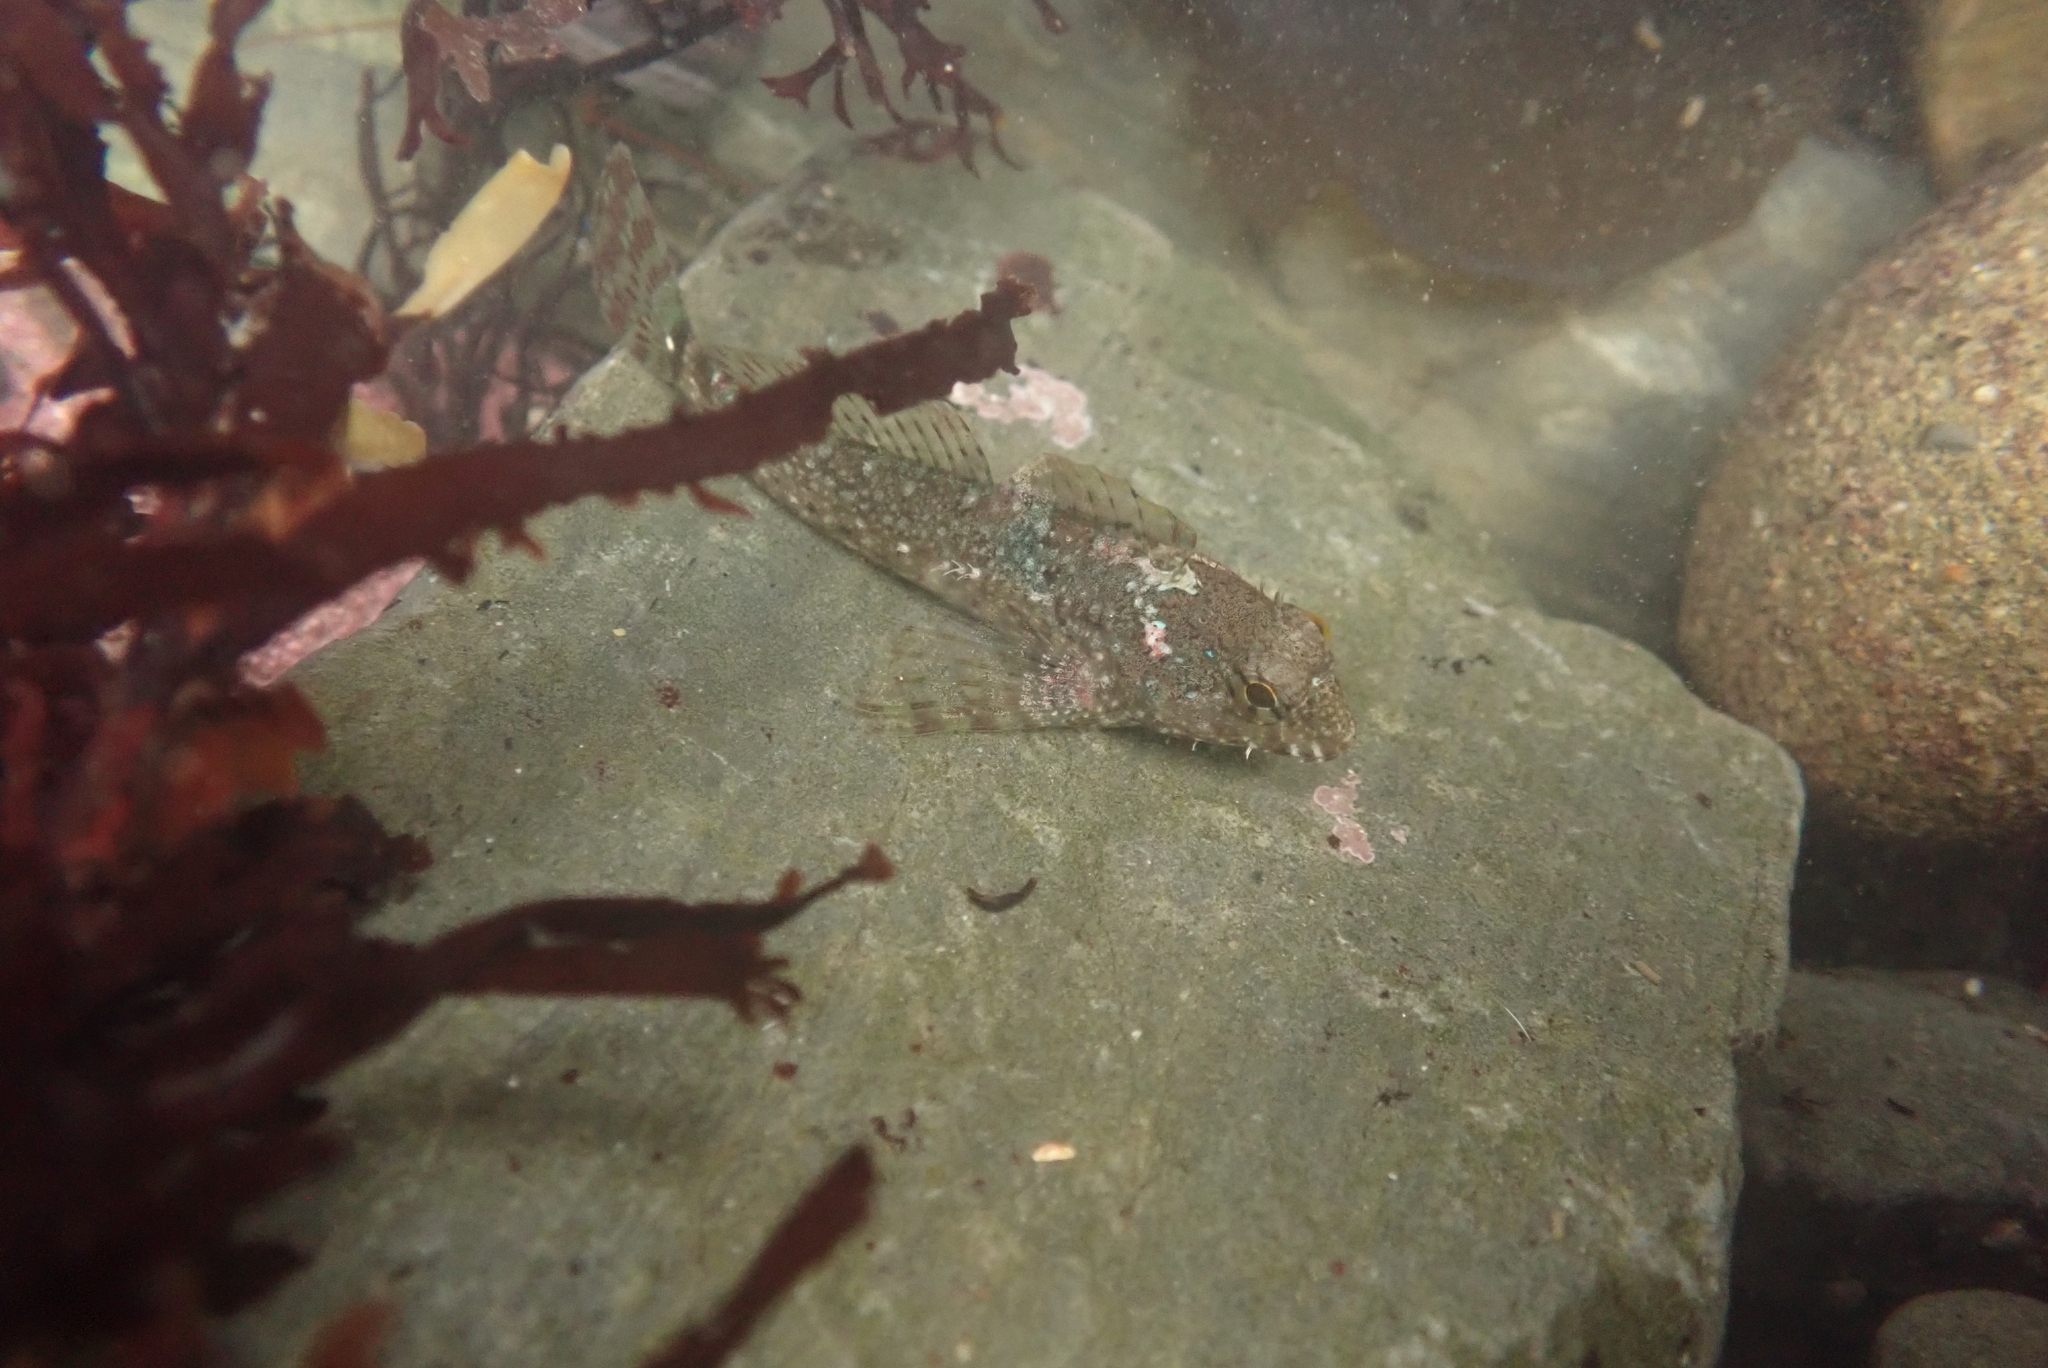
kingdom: Animalia
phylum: Chordata
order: Scorpaeniformes
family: Cottidae
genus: Clinocottus
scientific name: Clinocottus analis
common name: Woolly sculpin
